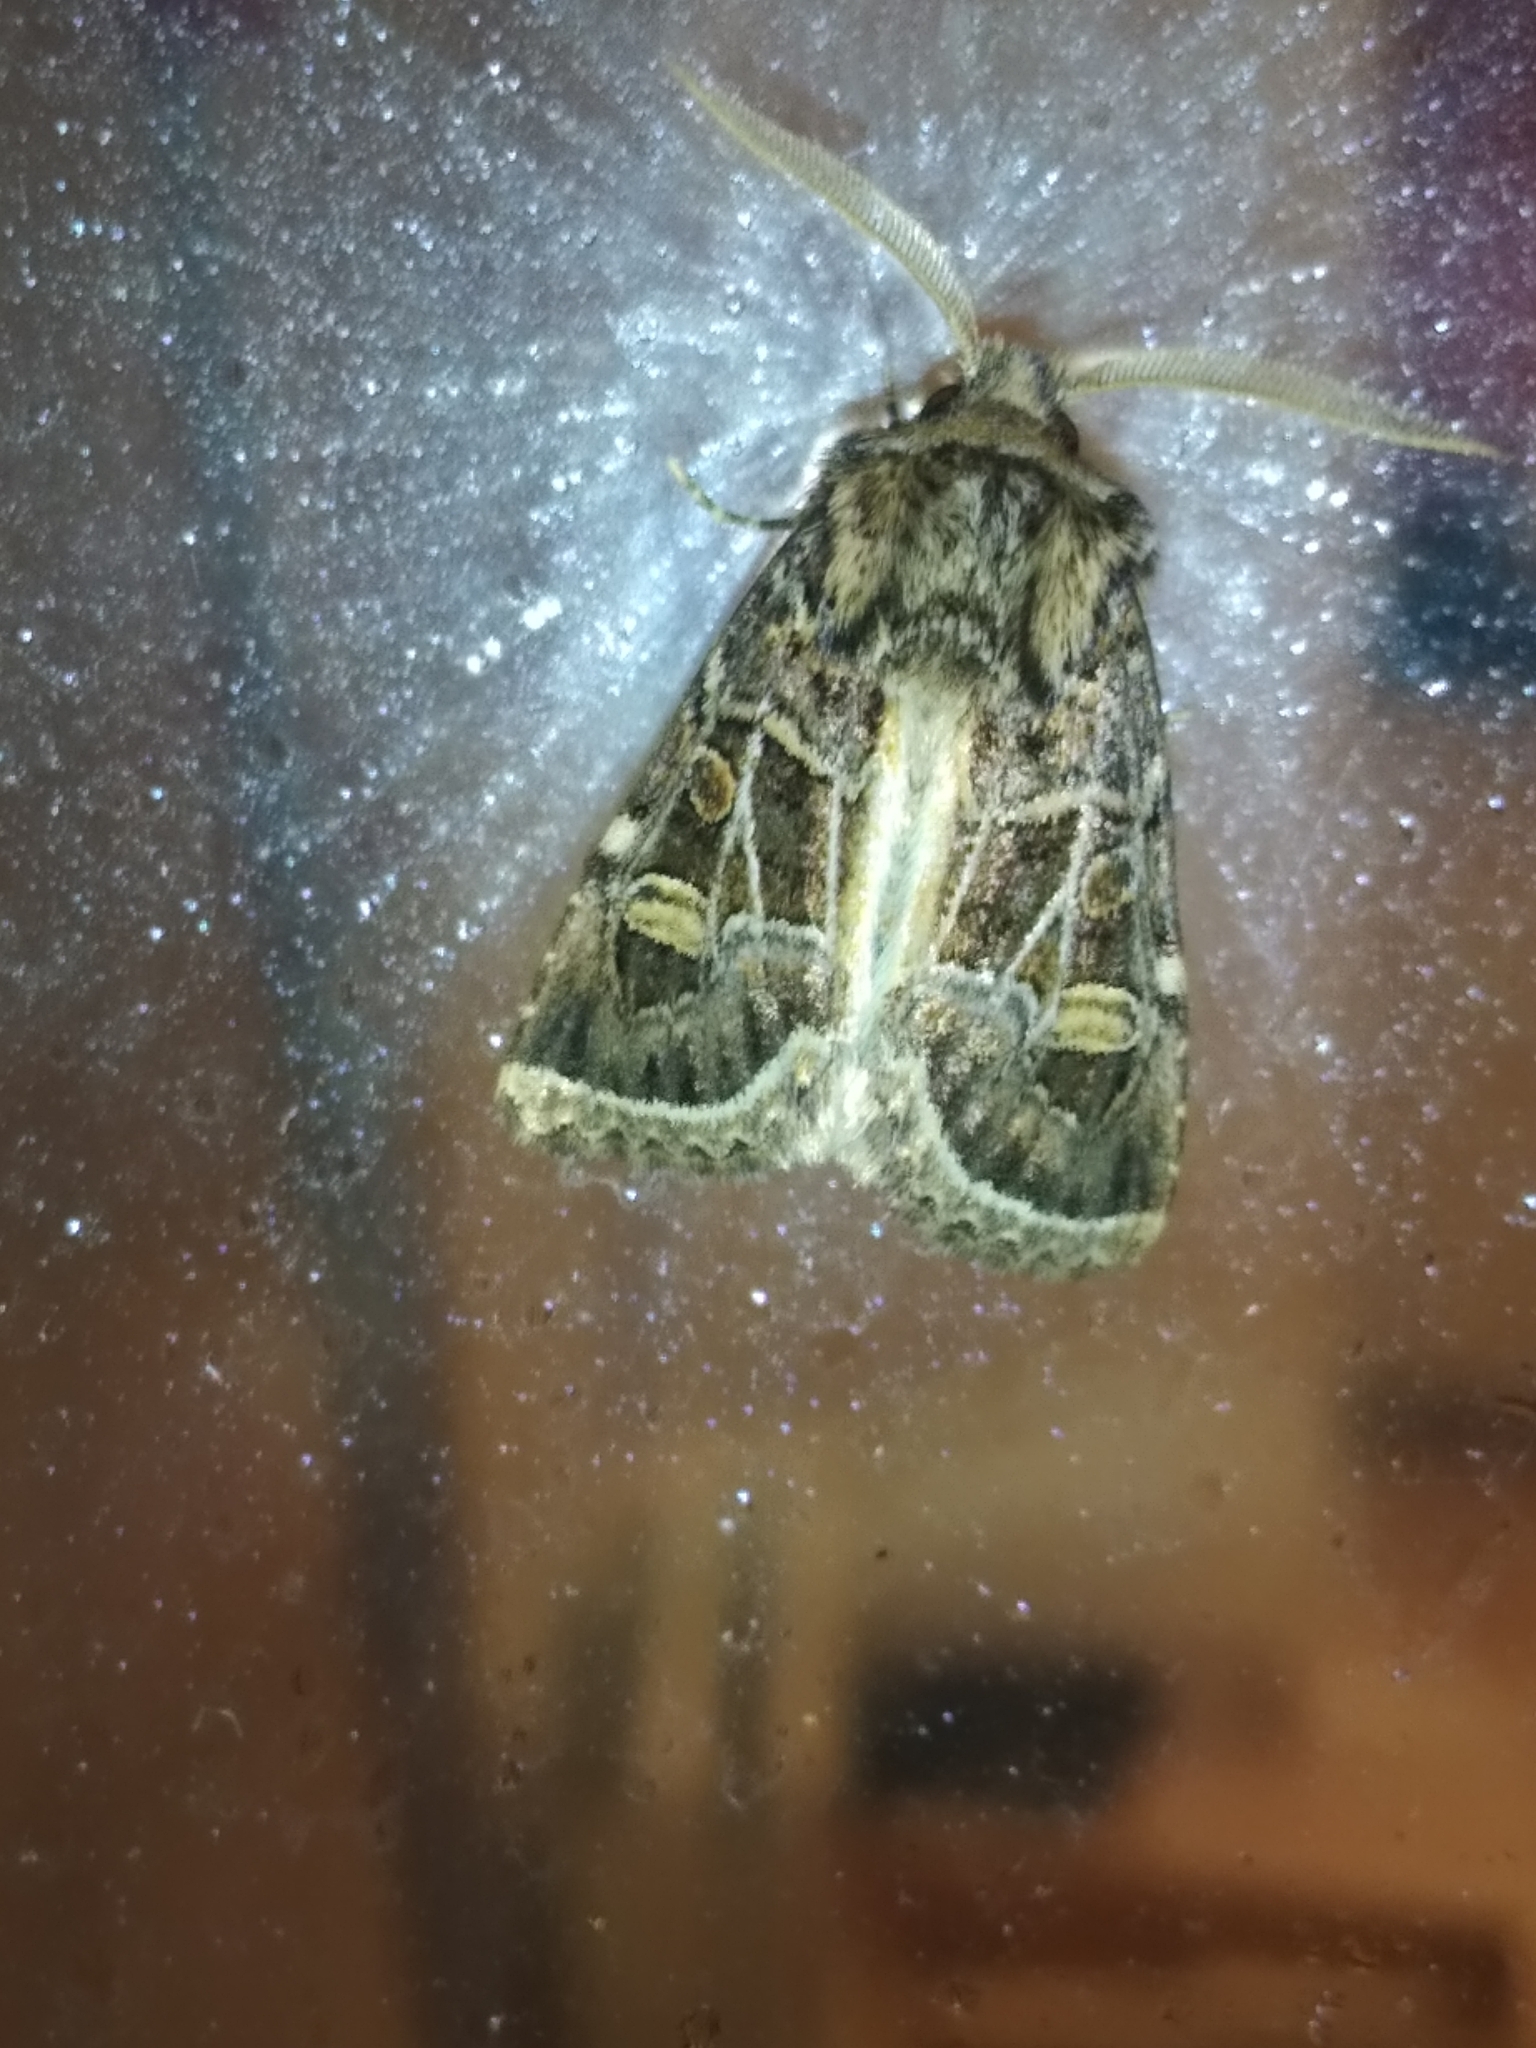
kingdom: Animalia
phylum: Arthropoda
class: Insecta
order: Lepidoptera
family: Noctuidae
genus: Leucochlaena
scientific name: Leucochlaena oditis
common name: Beautiful gothic
